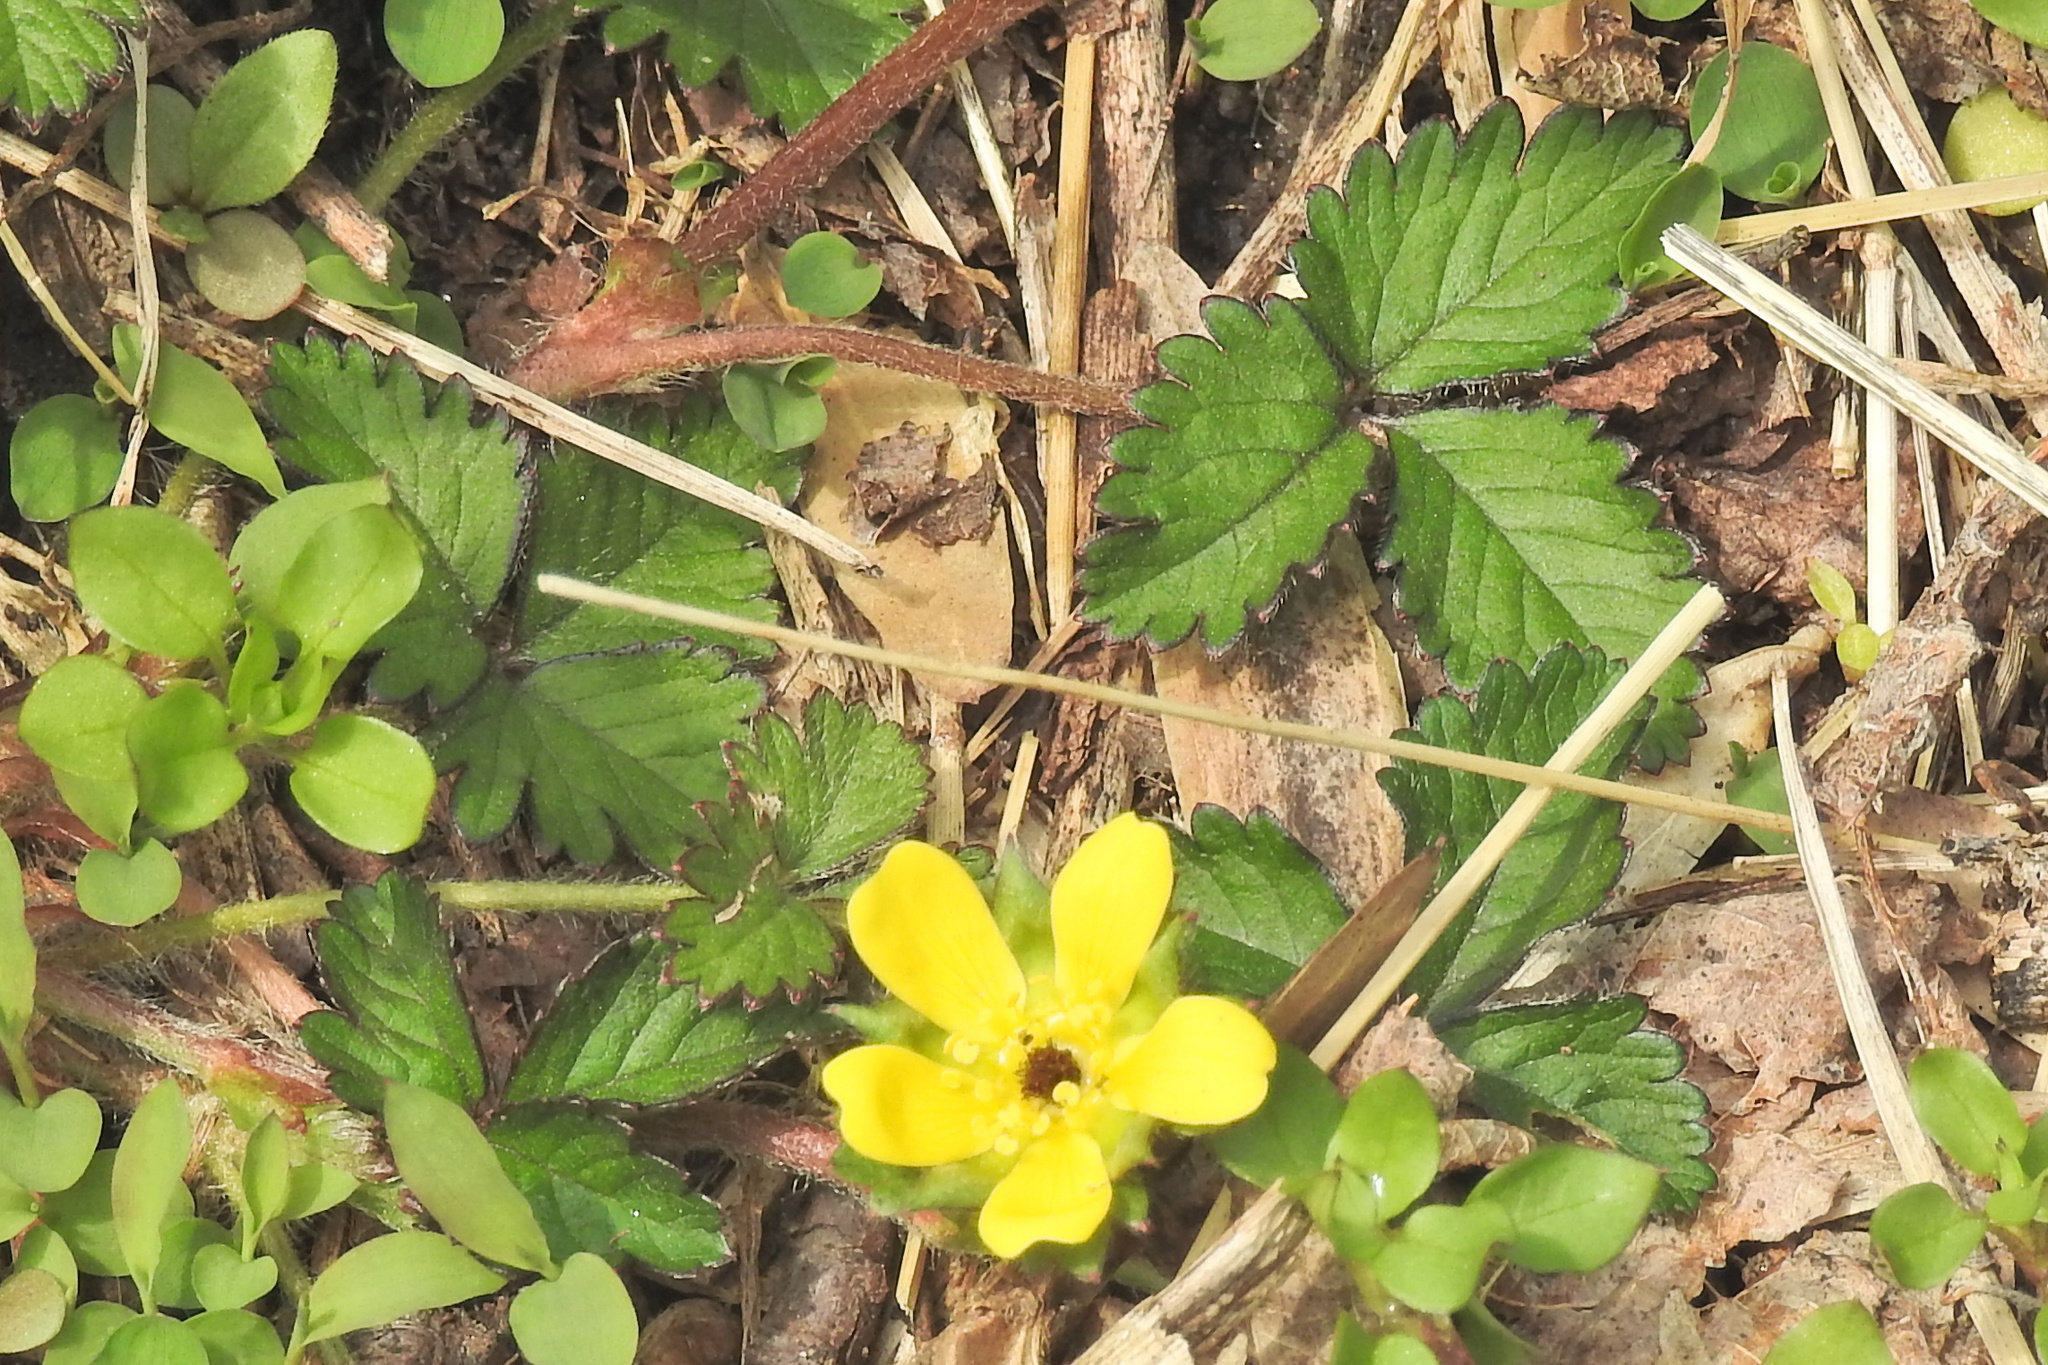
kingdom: Plantae
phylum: Tracheophyta
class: Magnoliopsida
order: Rosales
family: Rosaceae
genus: Potentilla
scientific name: Potentilla indica
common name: Yellow-flowered strawberry
